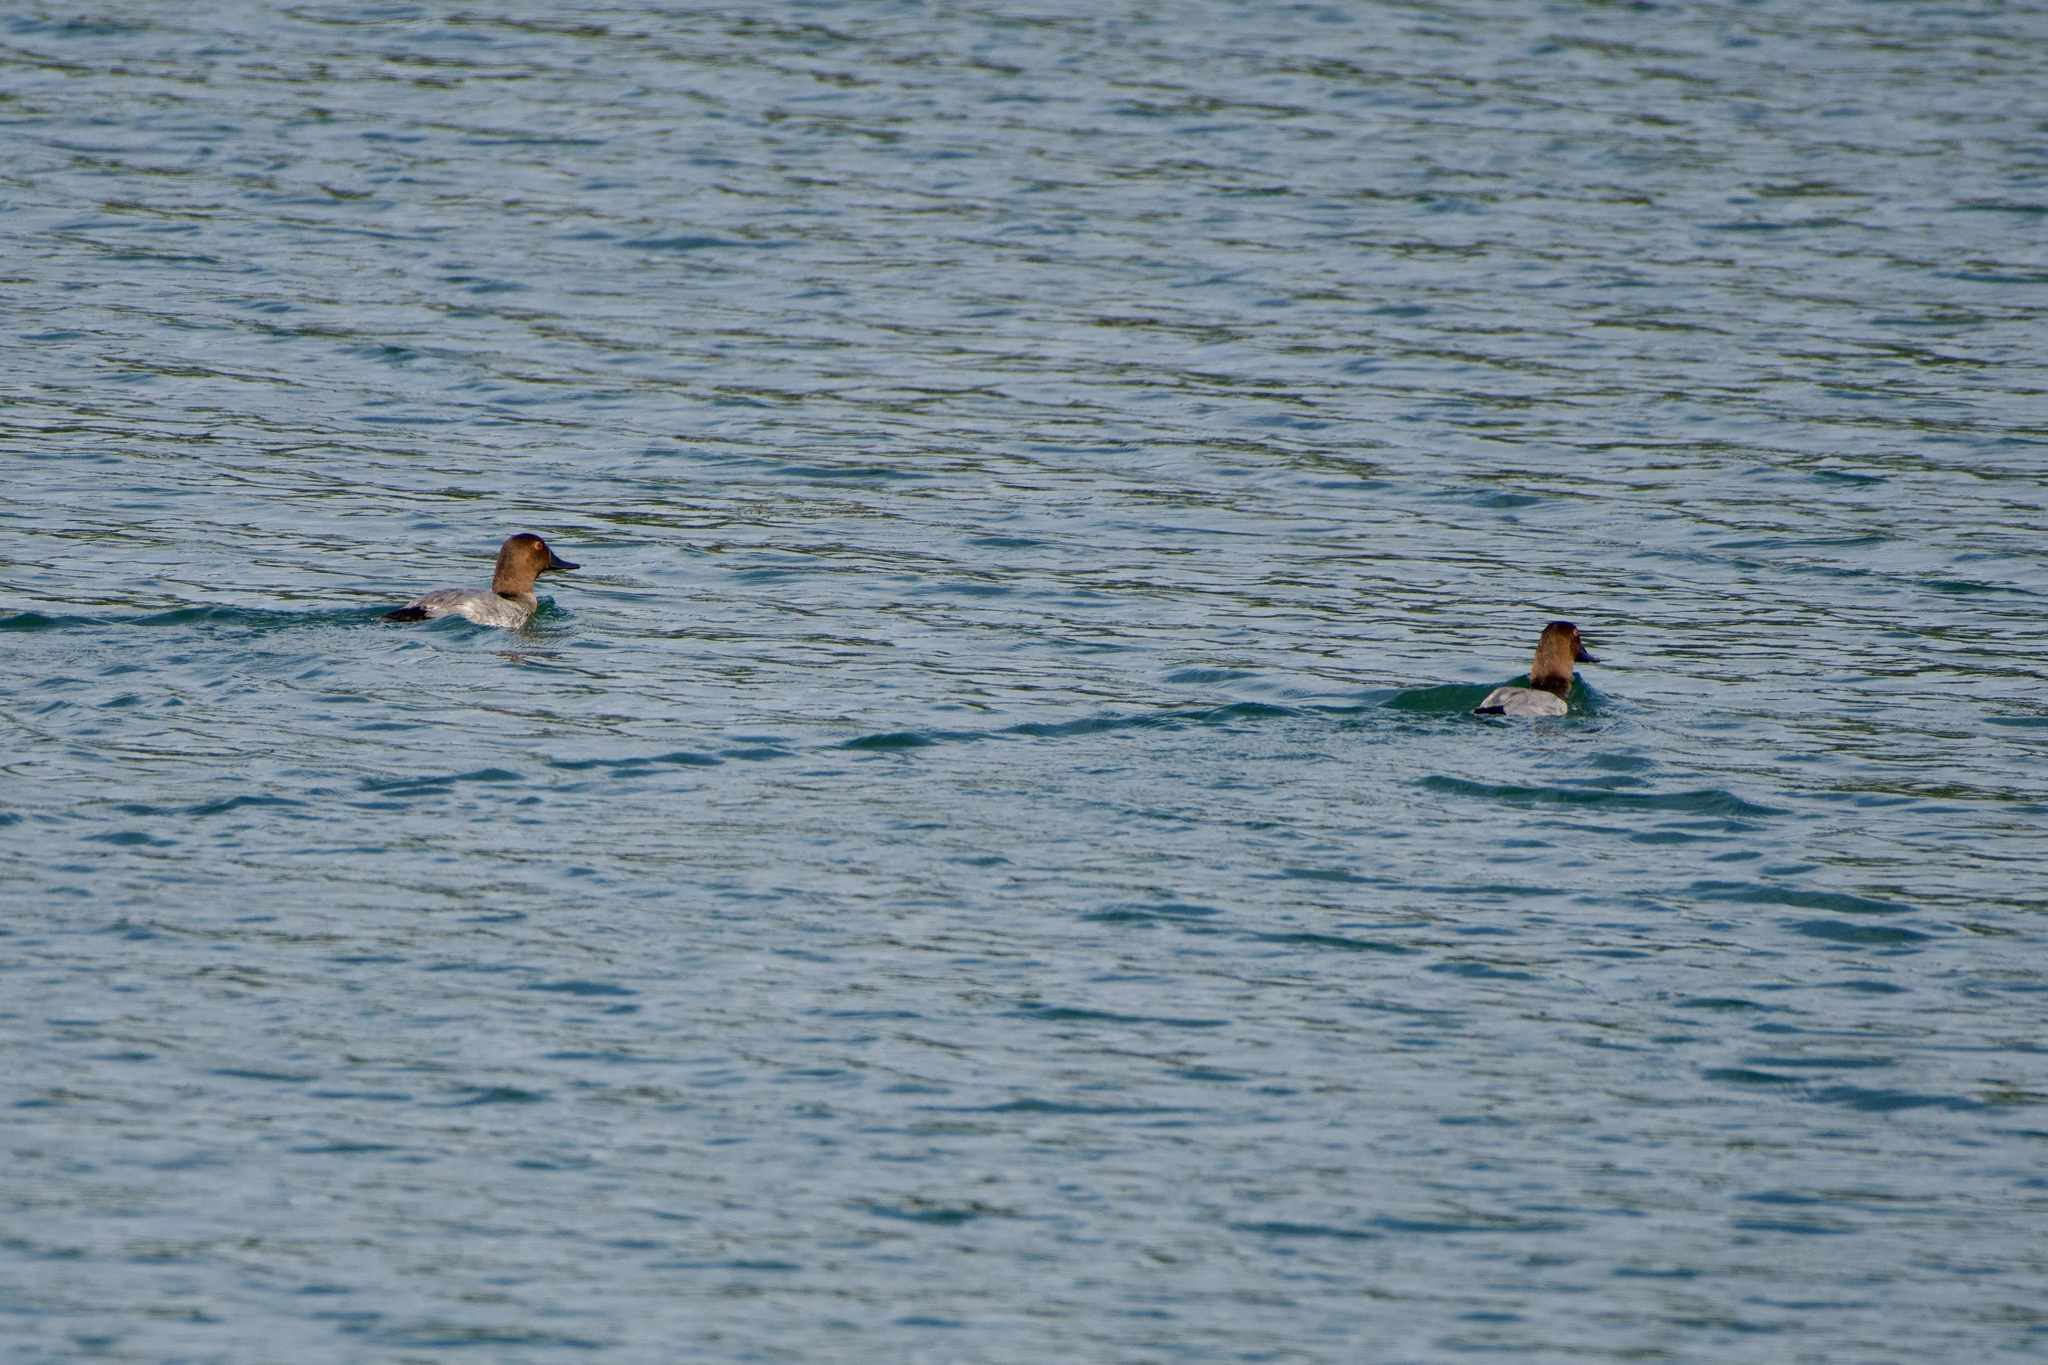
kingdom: Animalia
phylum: Chordata
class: Aves
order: Anseriformes
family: Anatidae
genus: Aythya
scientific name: Aythya ferina
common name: Common pochard
